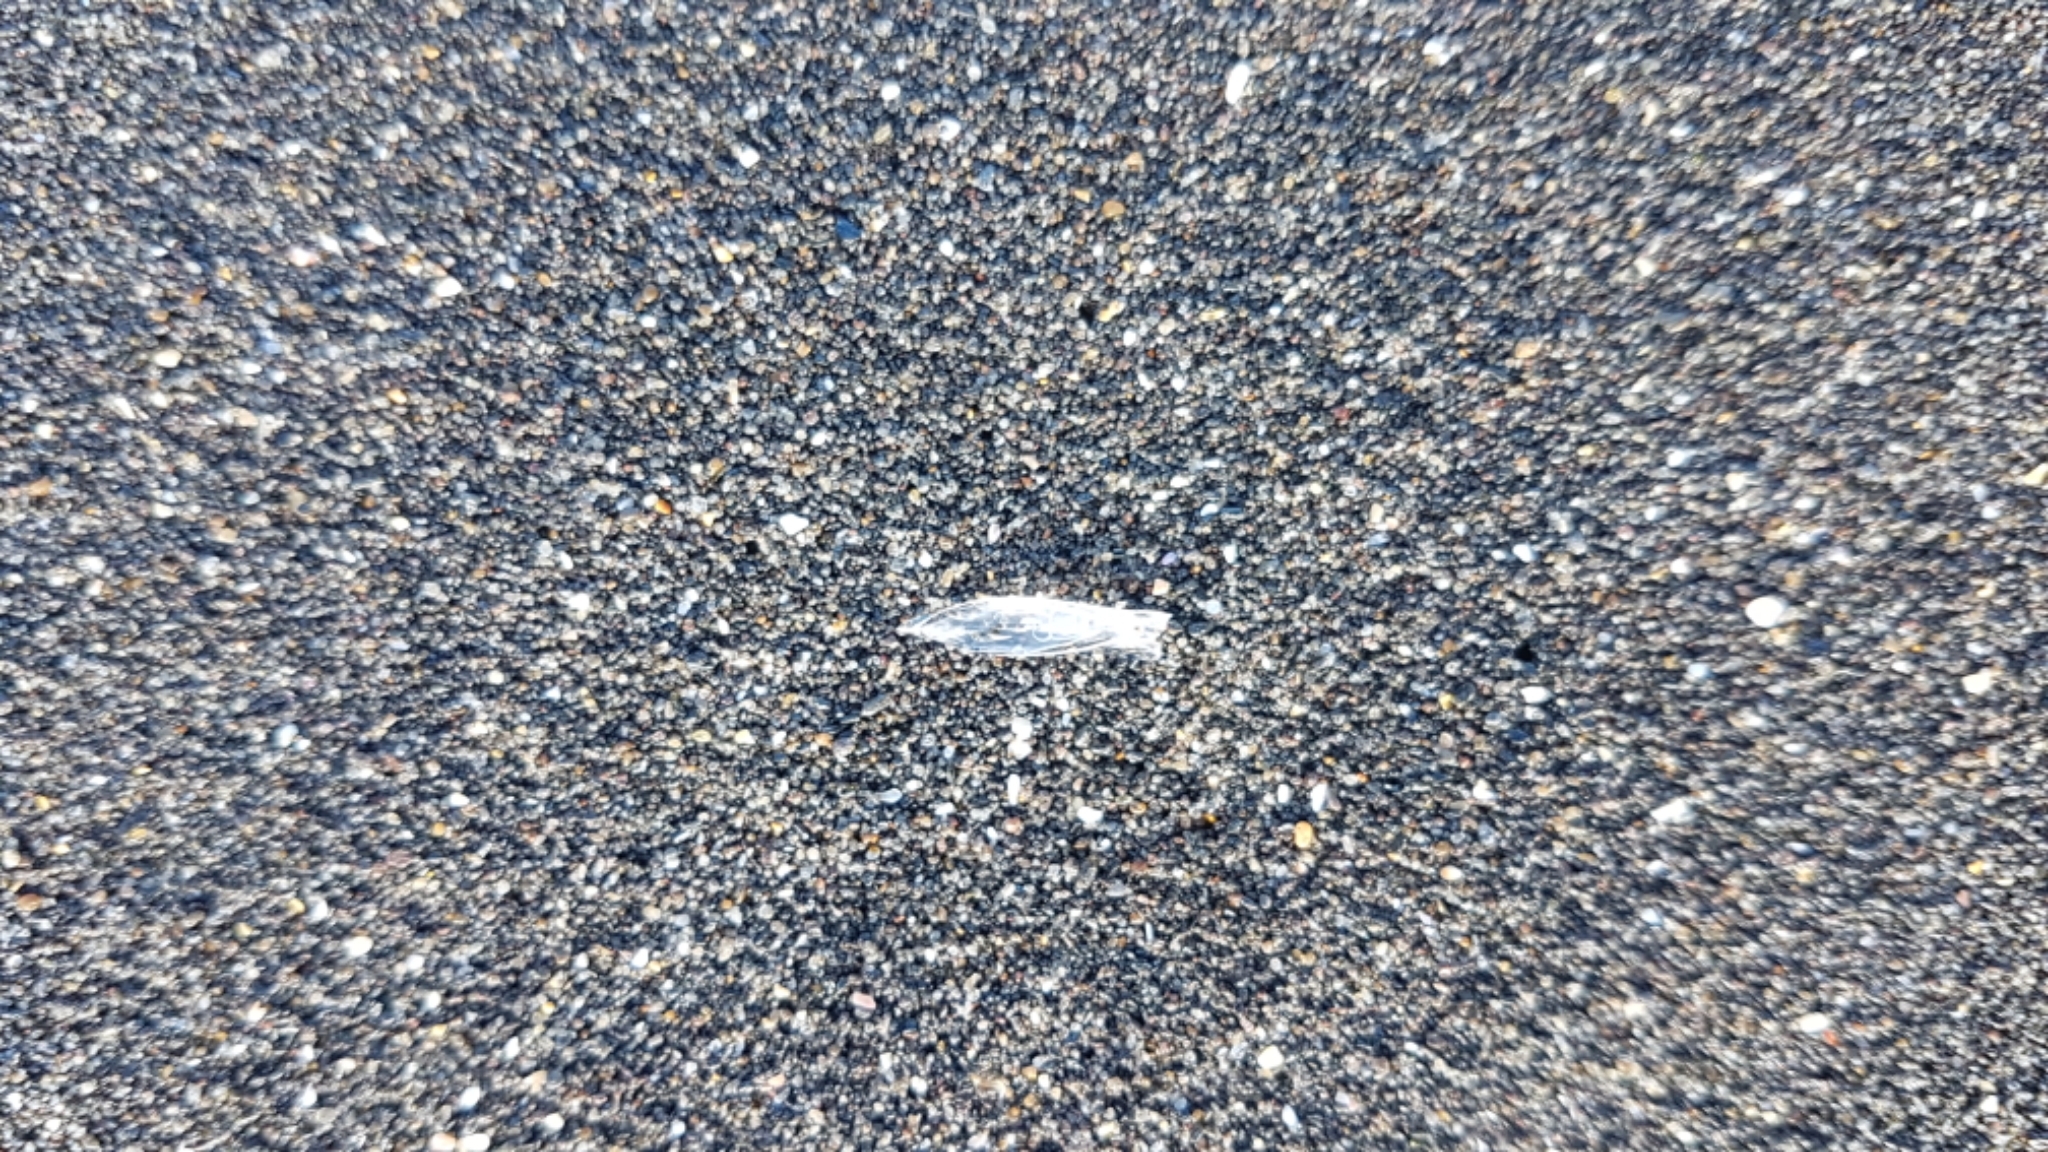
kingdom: Animalia
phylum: Cnidaria
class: Hydrozoa
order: Siphonophorae
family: Diphyidae
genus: Chelophyes
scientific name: Chelophyes appendiculata
